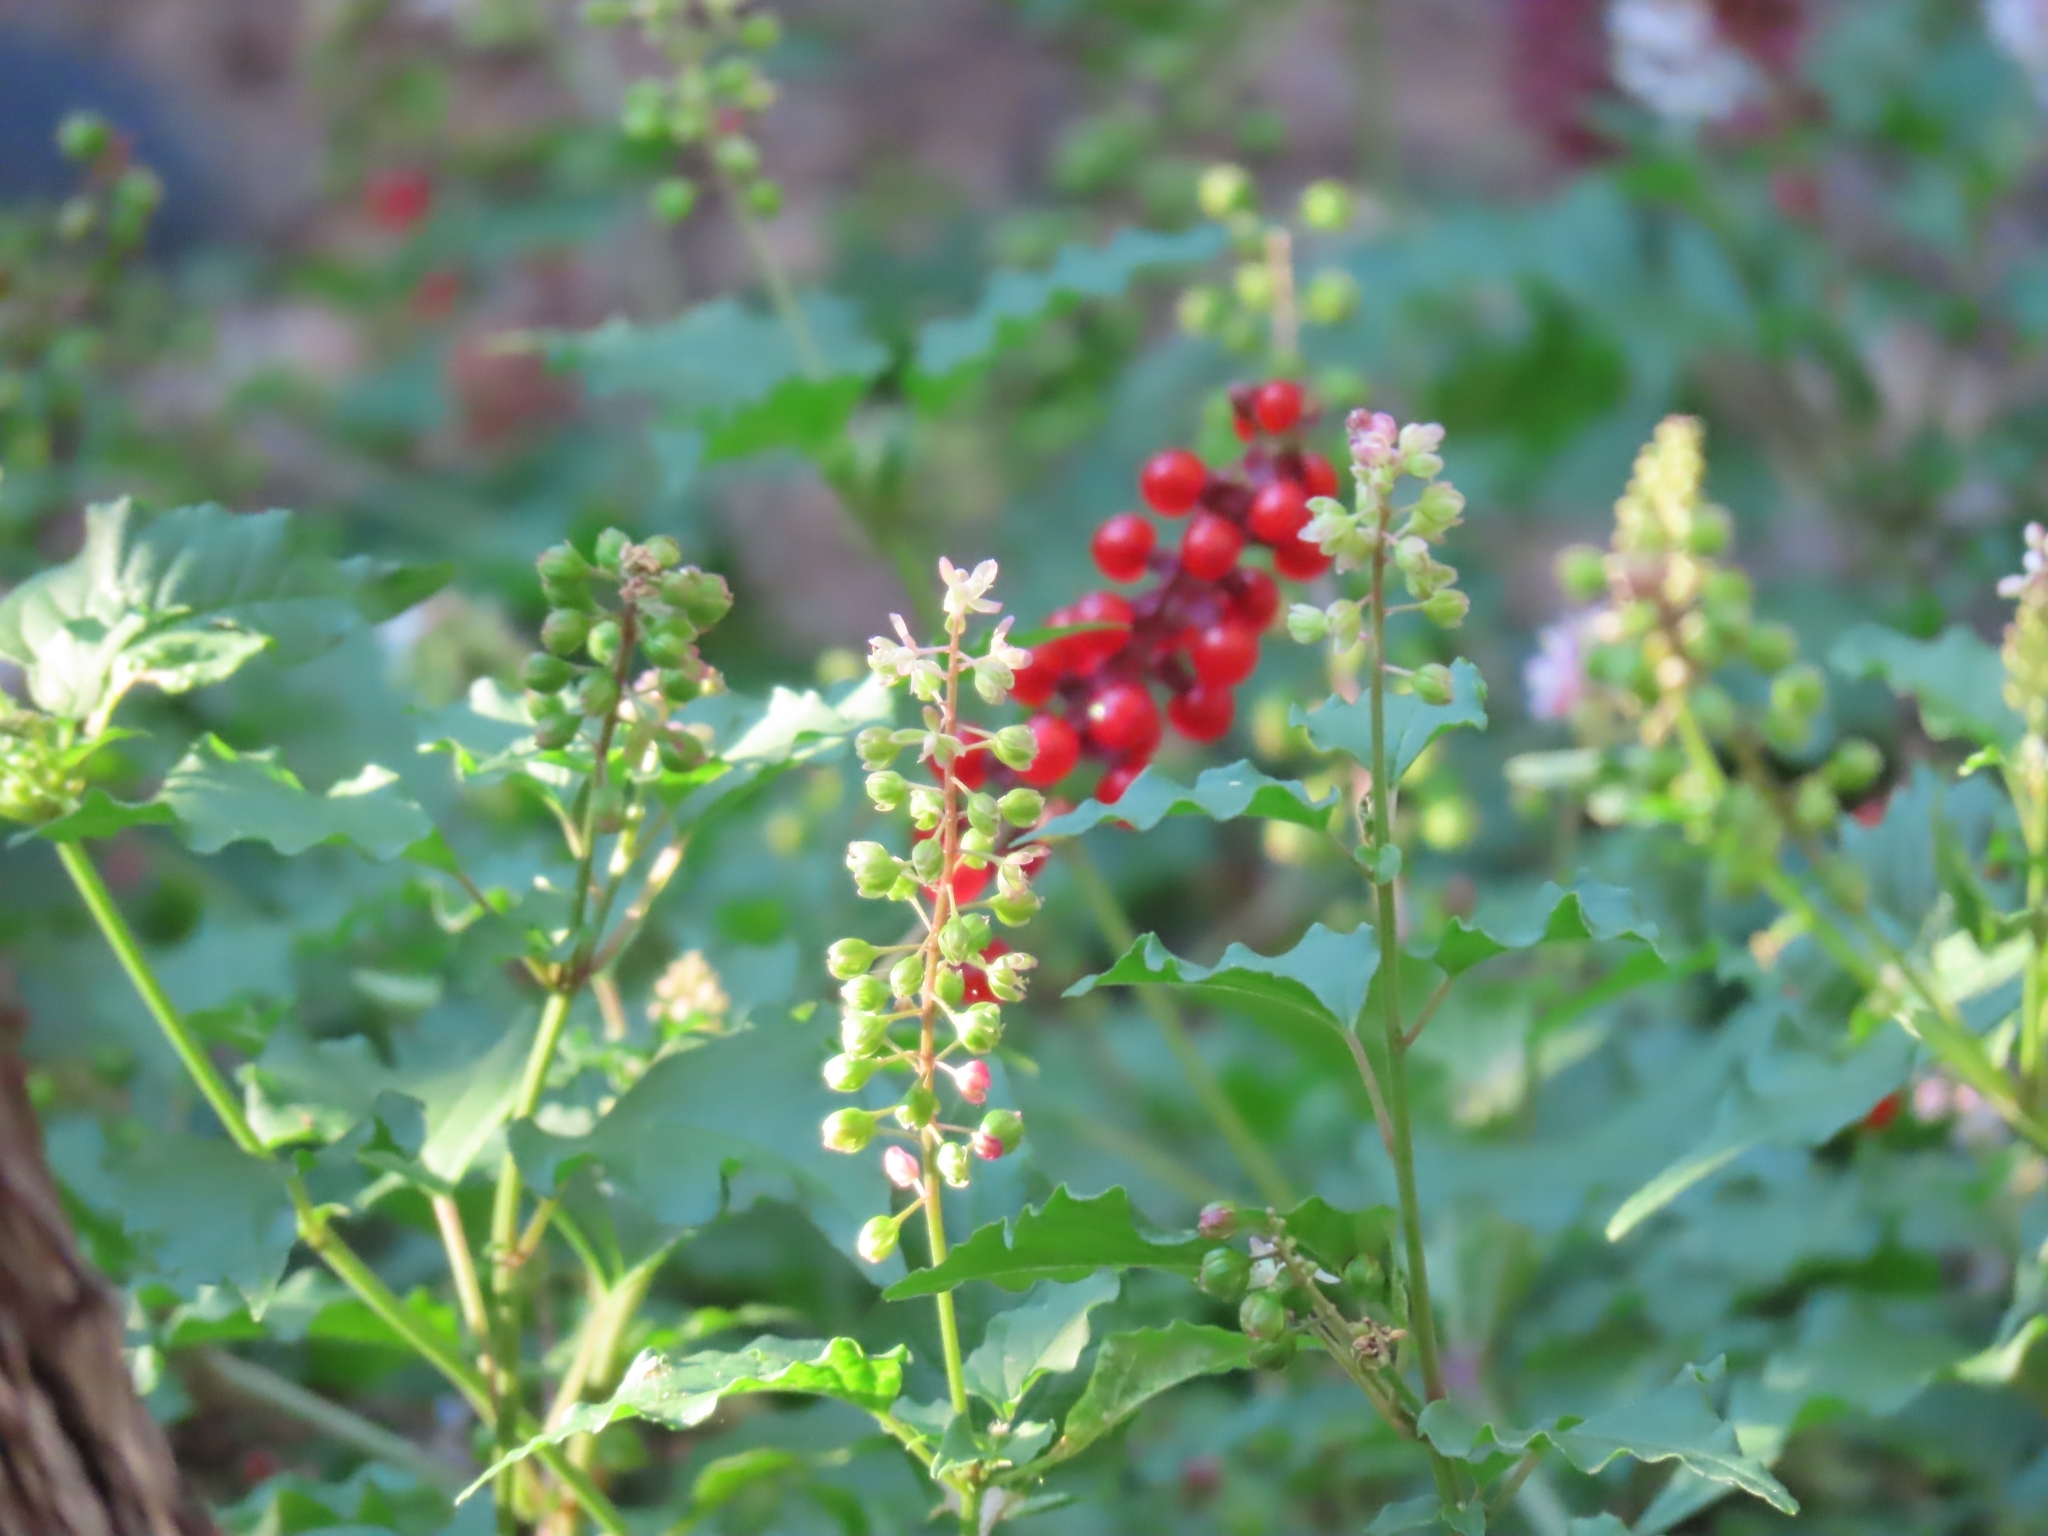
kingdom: Plantae
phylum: Tracheophyta
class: Magnoliopsida
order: Caryophyllales
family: Phytolaccaceae
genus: Rivina
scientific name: Rivina humilis
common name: Rougeplant
